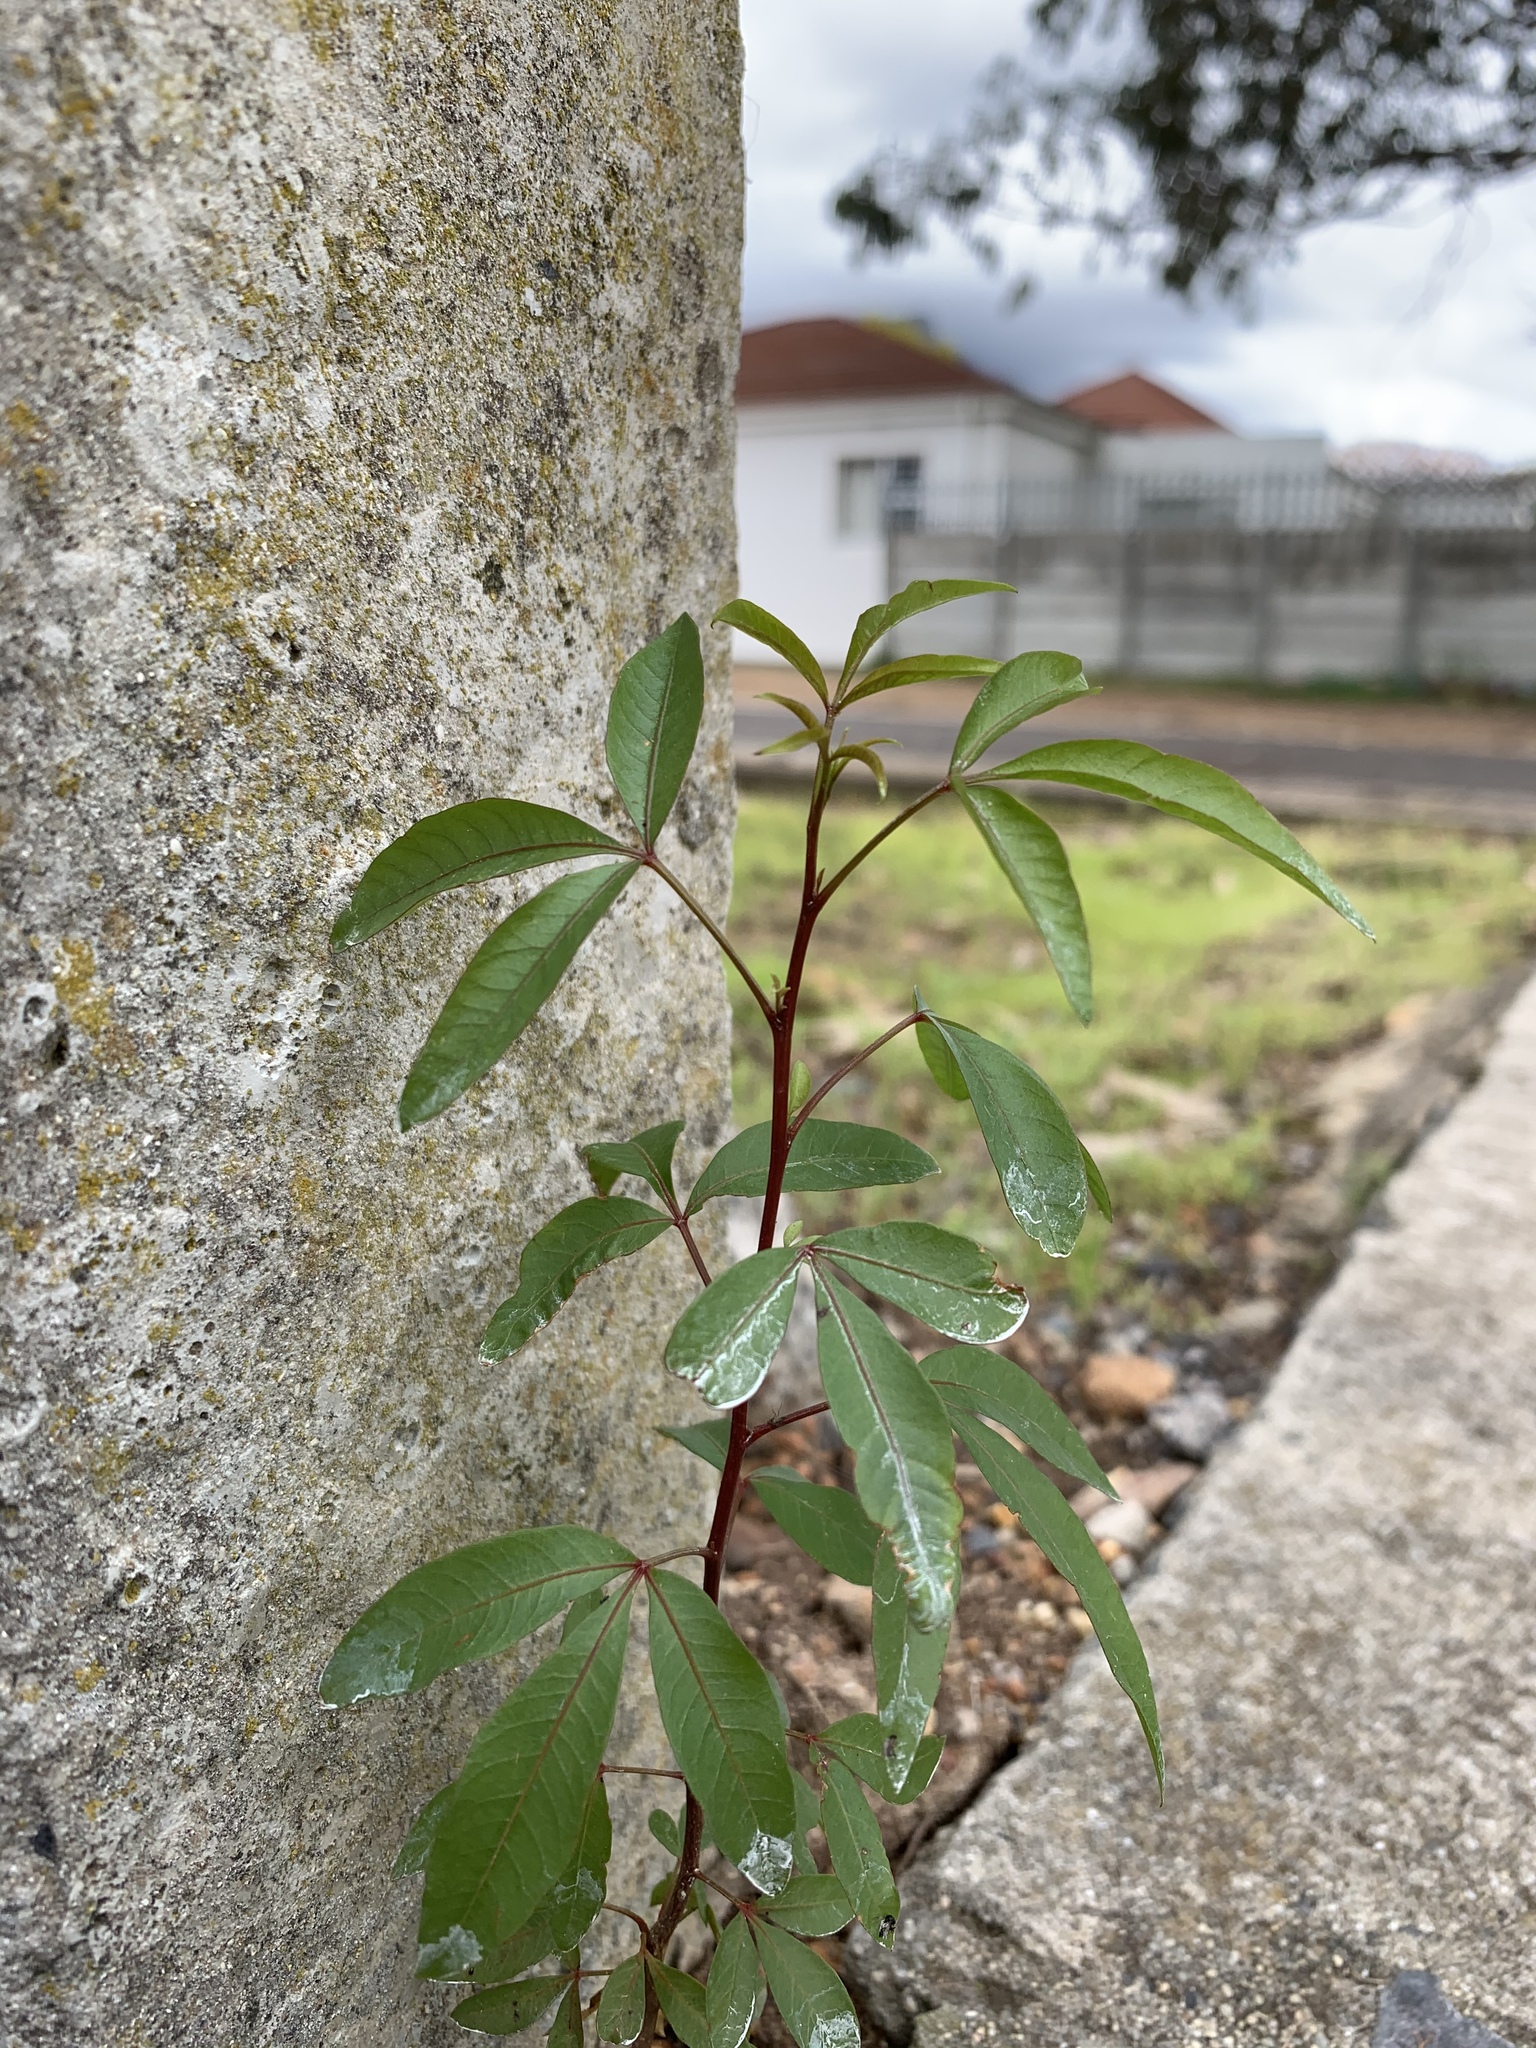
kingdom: Plantae
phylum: Tracheophyta
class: Magnoliopsida
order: Sapindales
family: Anacardiaceae
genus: Searsia
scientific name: Searsia pendulina
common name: White karee
